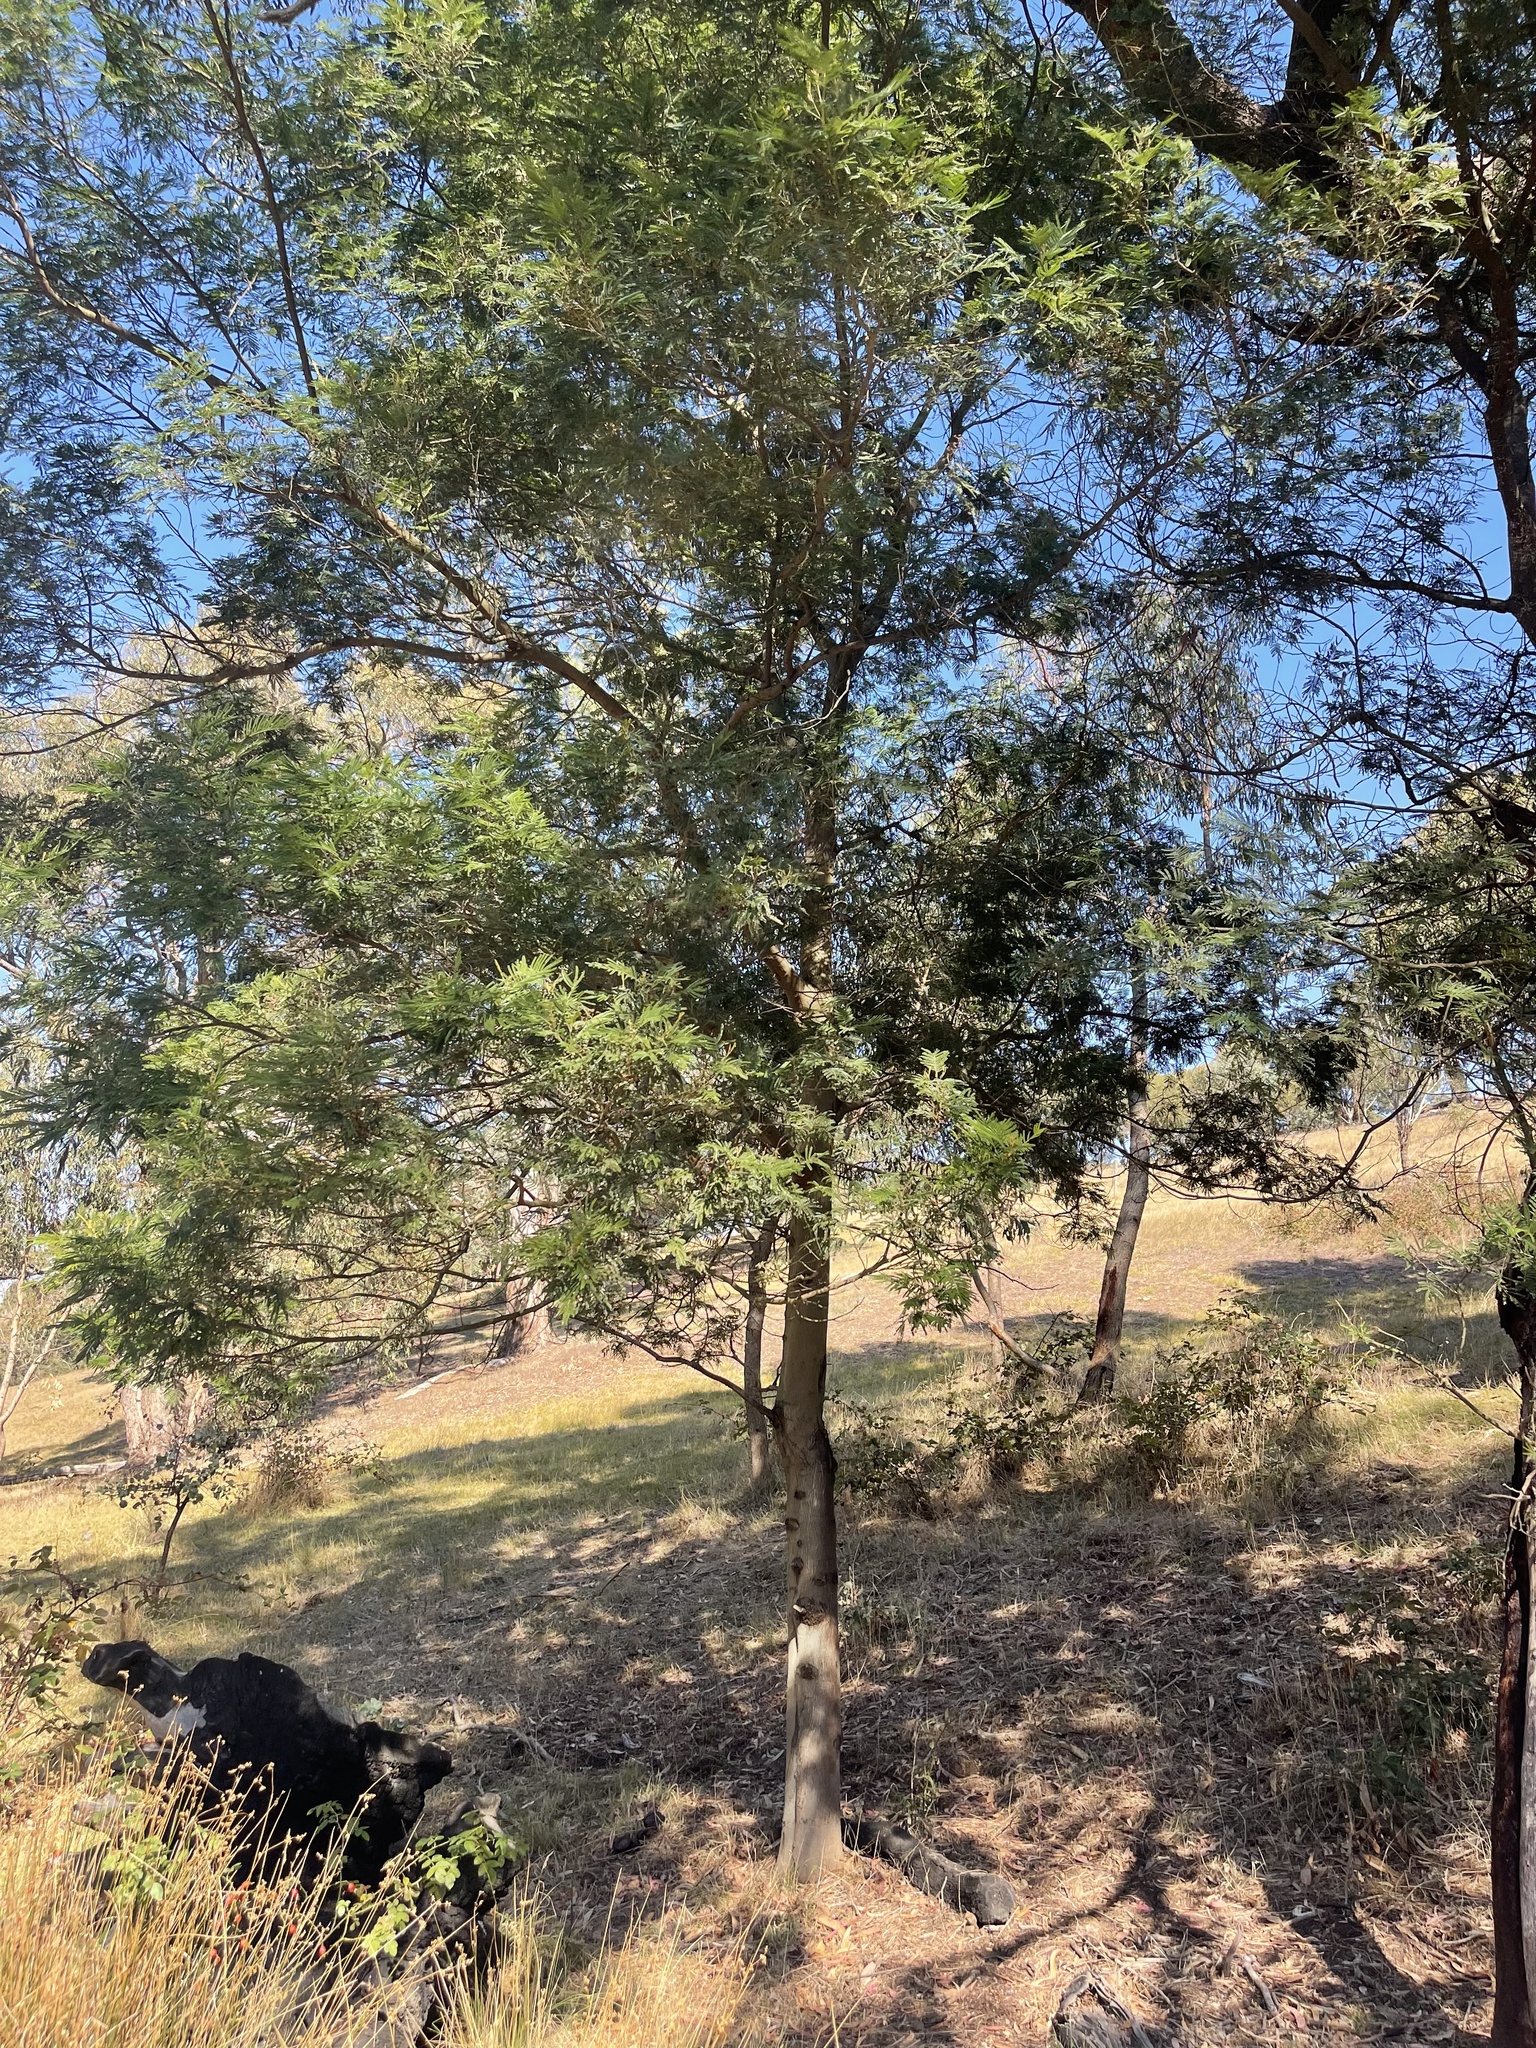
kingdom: Plantae
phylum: Tracheophyta
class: Magnoliopsida
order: Fabales
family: Fabaceae
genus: Acacia
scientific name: Acacia dealbata
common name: Silver wattle
